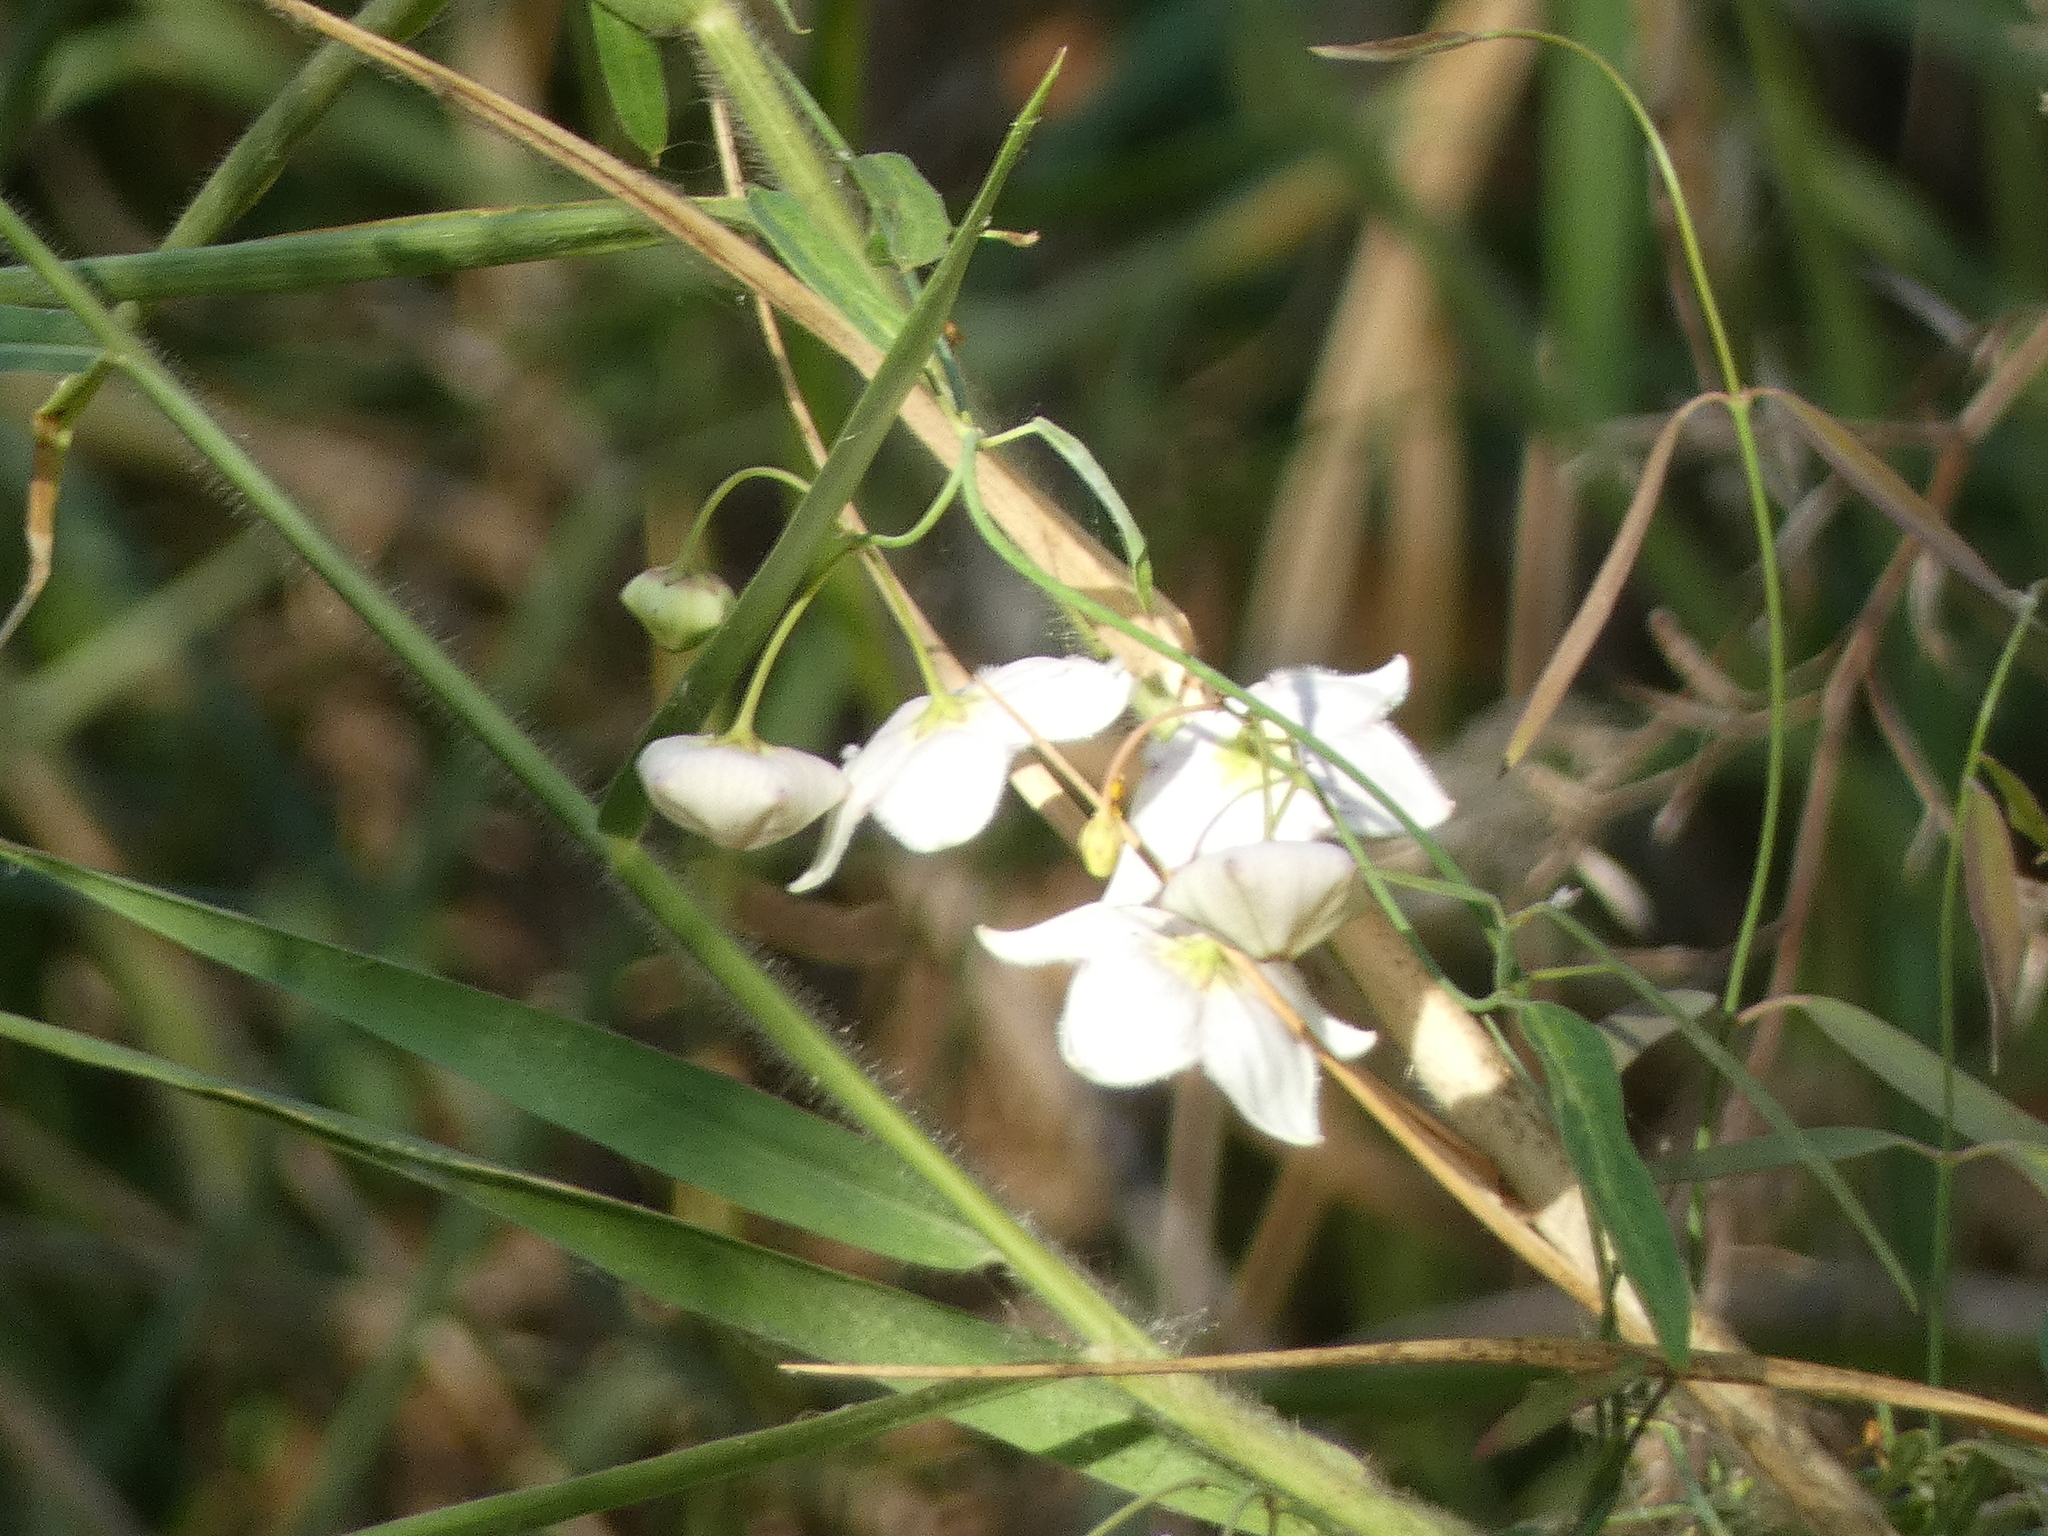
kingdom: Plantae
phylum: Tracheophyta
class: Magnoliopsida
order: Gentianales
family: Apocynaceae
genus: Oxystelma
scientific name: Oxystelma wallichii
